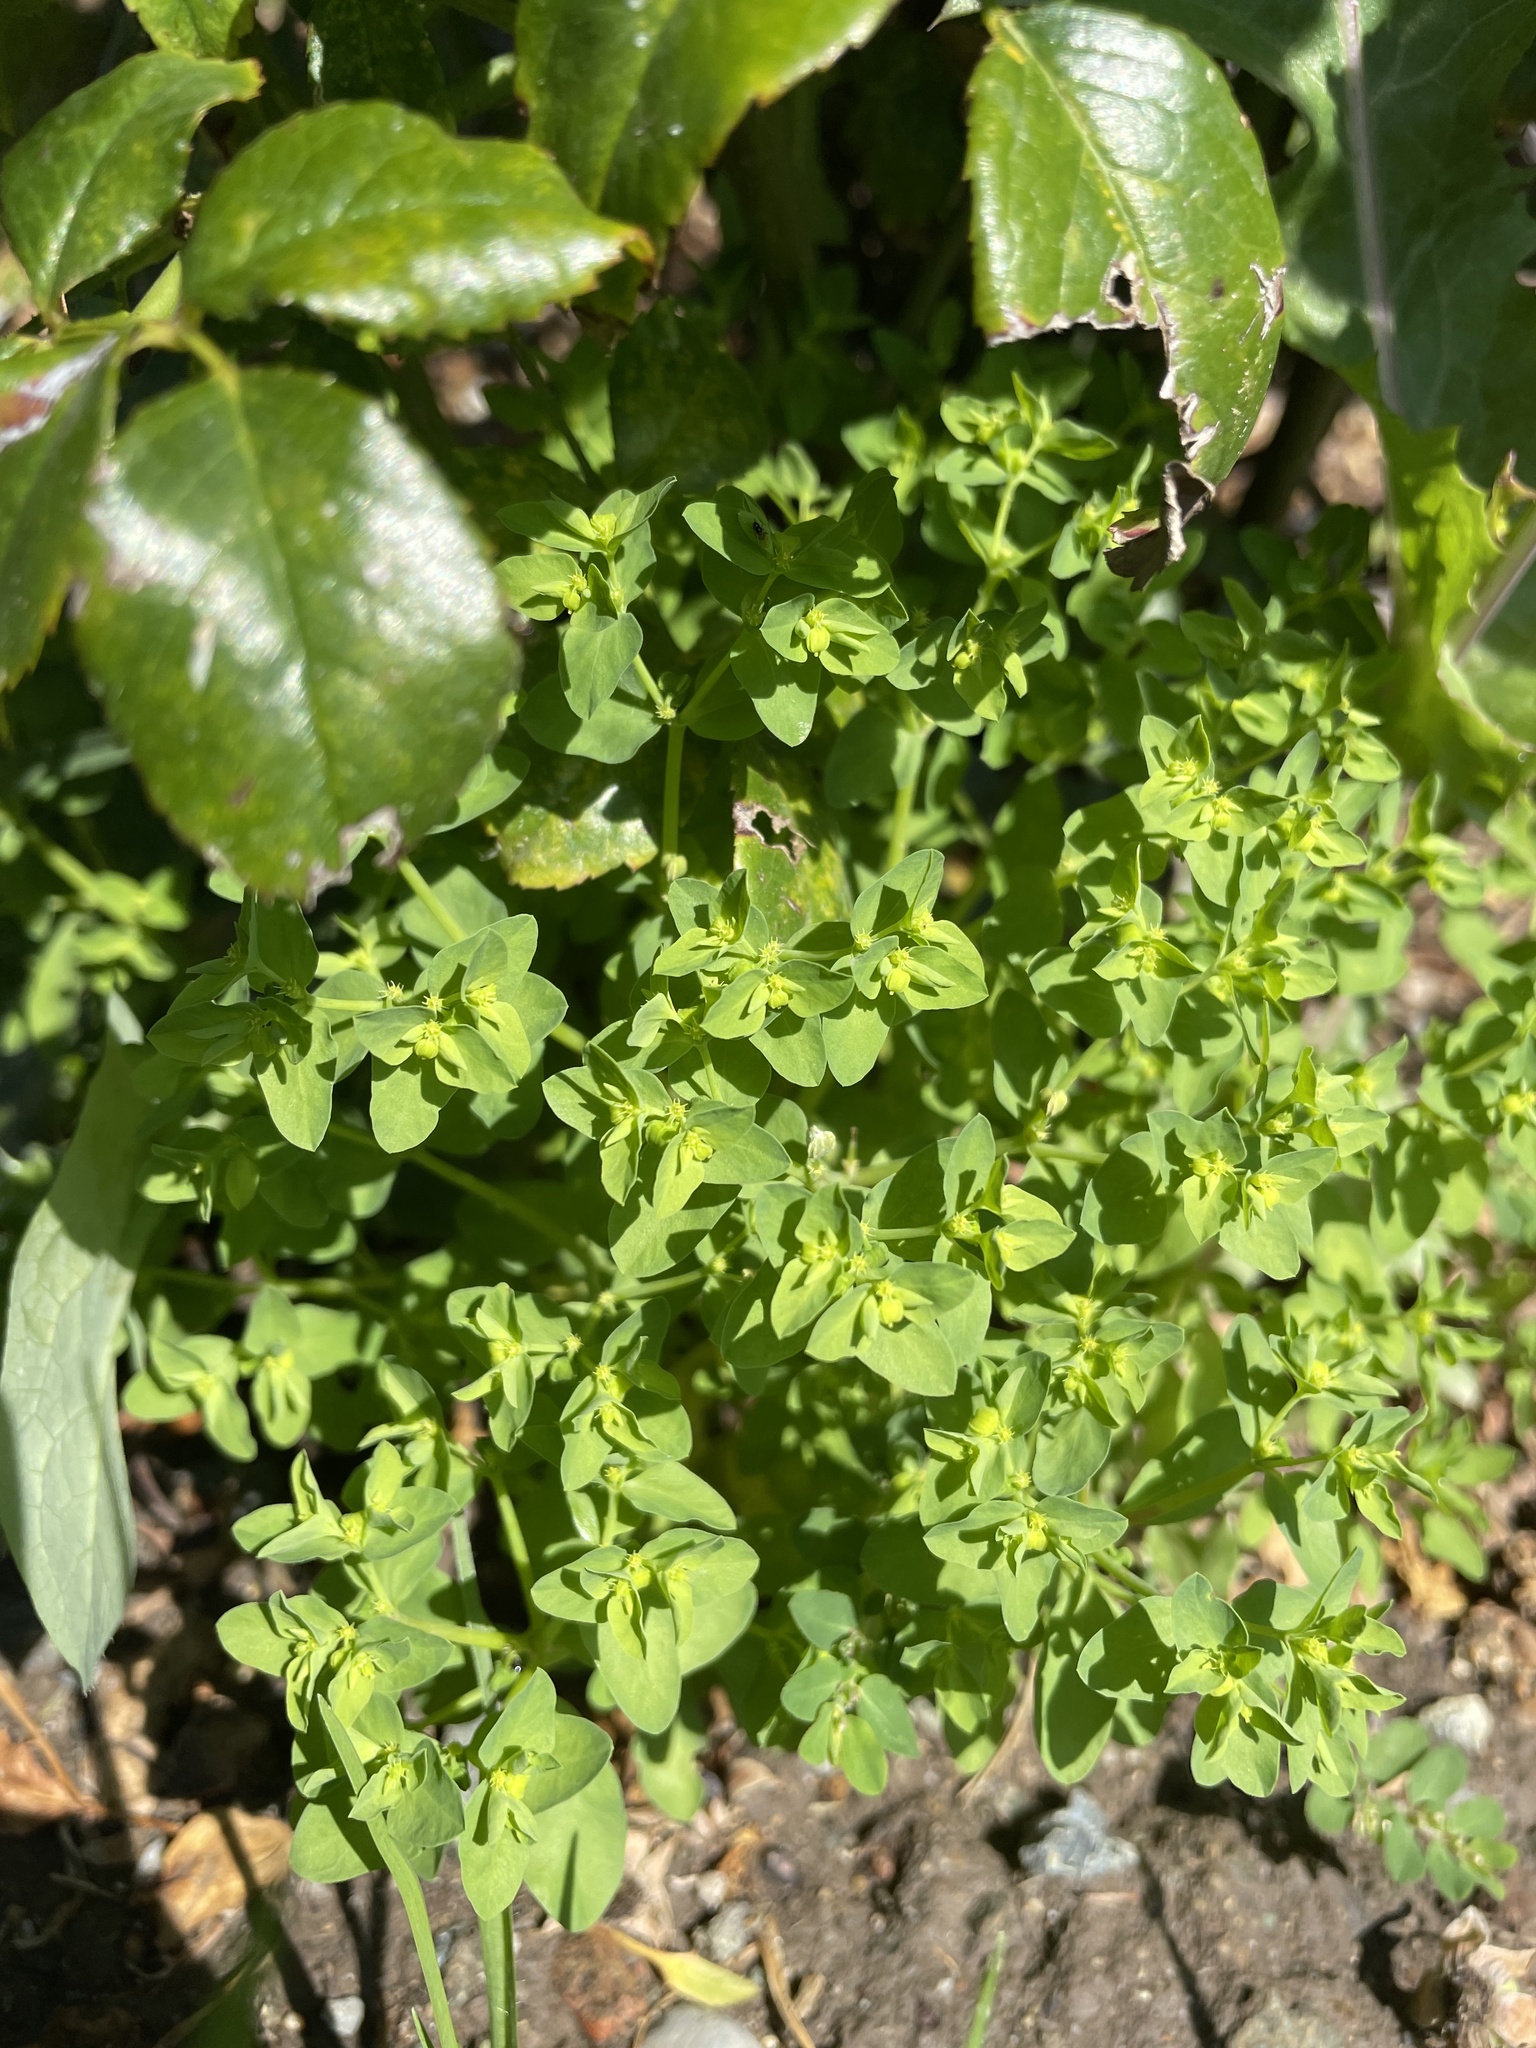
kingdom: Plantae
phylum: Tracheophyta
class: Magnoliopsida
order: Malpighiales
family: Euphorbiaceae
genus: Euphorbia
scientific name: Euphorbia peplus
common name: Petty spurge
